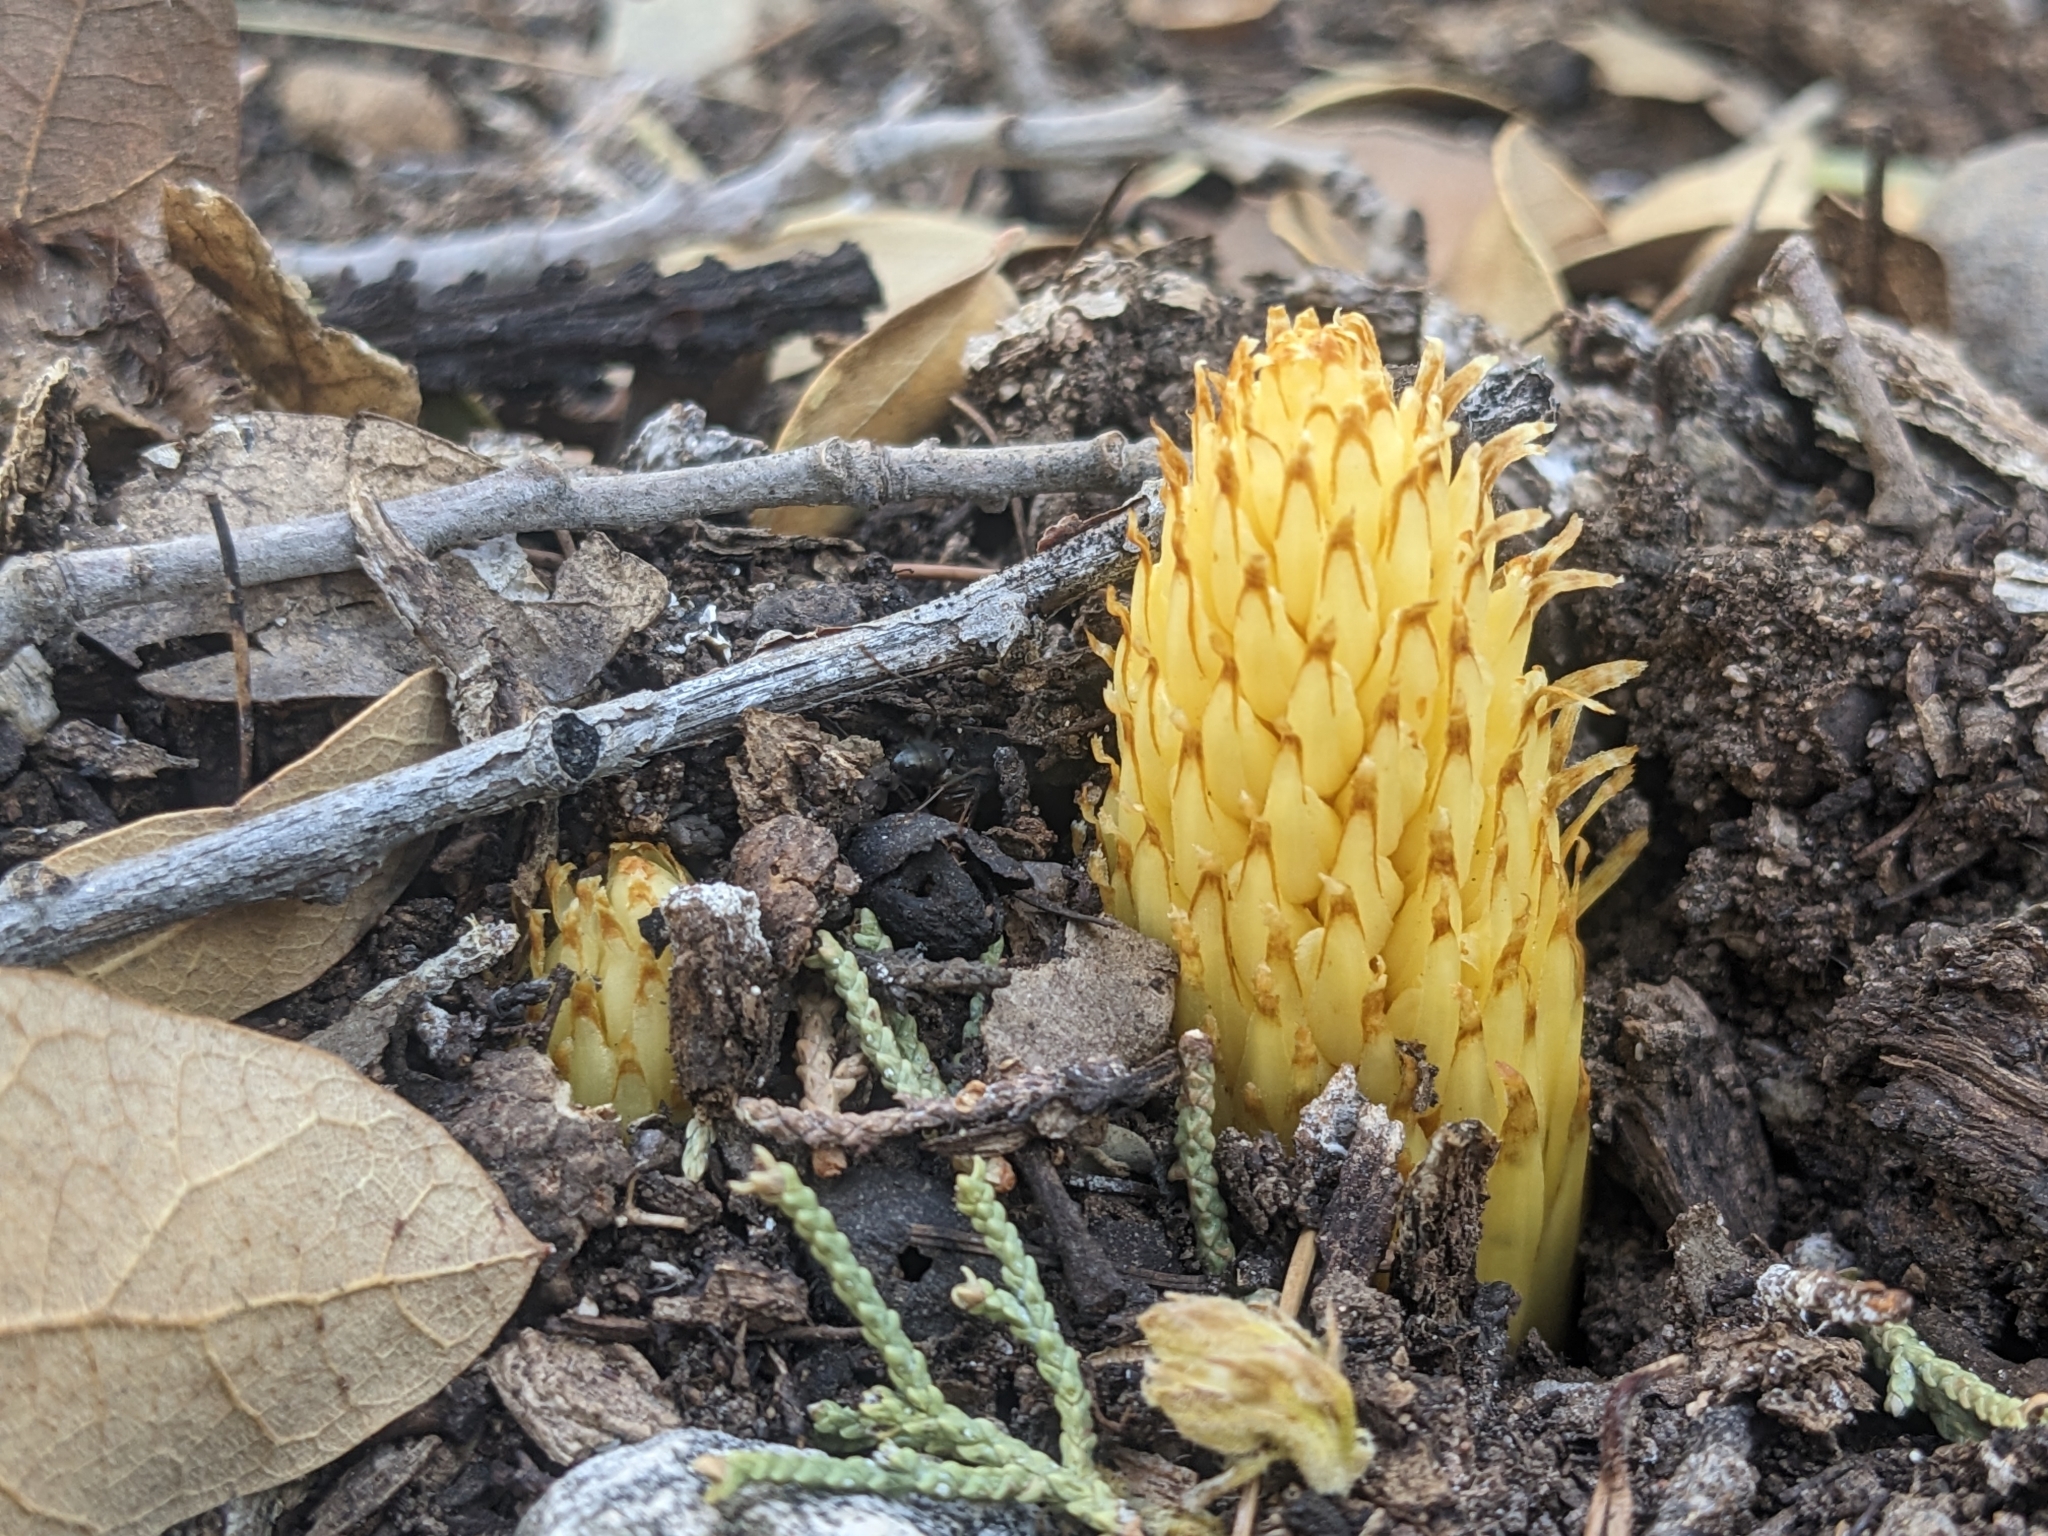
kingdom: Plantae
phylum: Tracheophyta
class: Magnoliopsida
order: Lamiales
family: Orobanchaceae
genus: Conopholis
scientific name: Conopholis alpina
